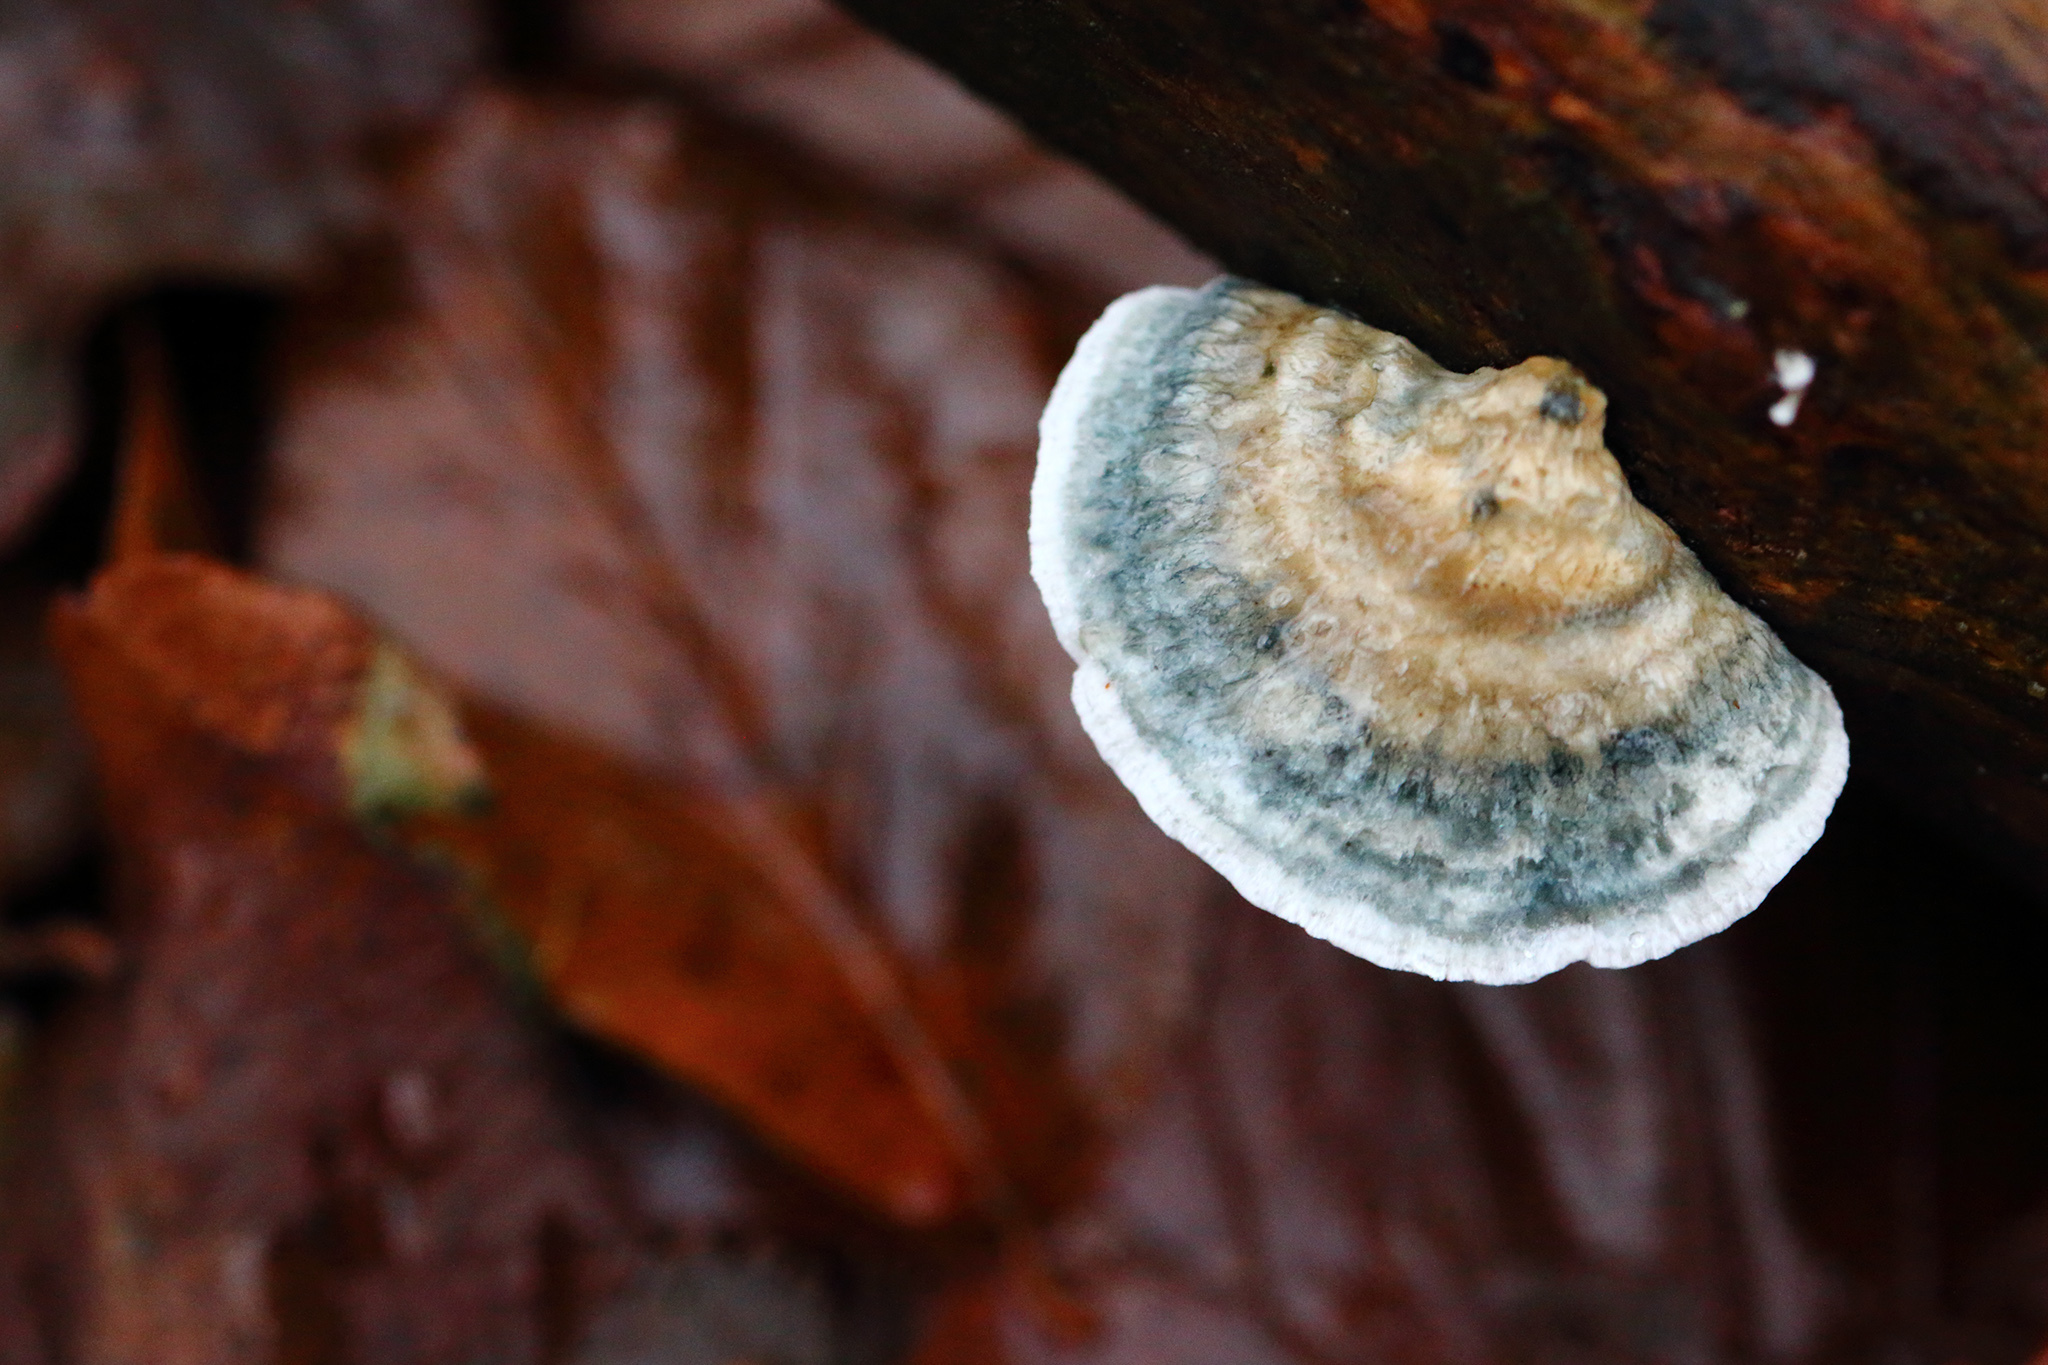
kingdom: Fungi
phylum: Basidiomycota
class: Agaricomycetes
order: Polyporales
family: Polyporaceae
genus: Cyanosporus
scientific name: Cyanosporus caesius
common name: Blue cheese polypore
